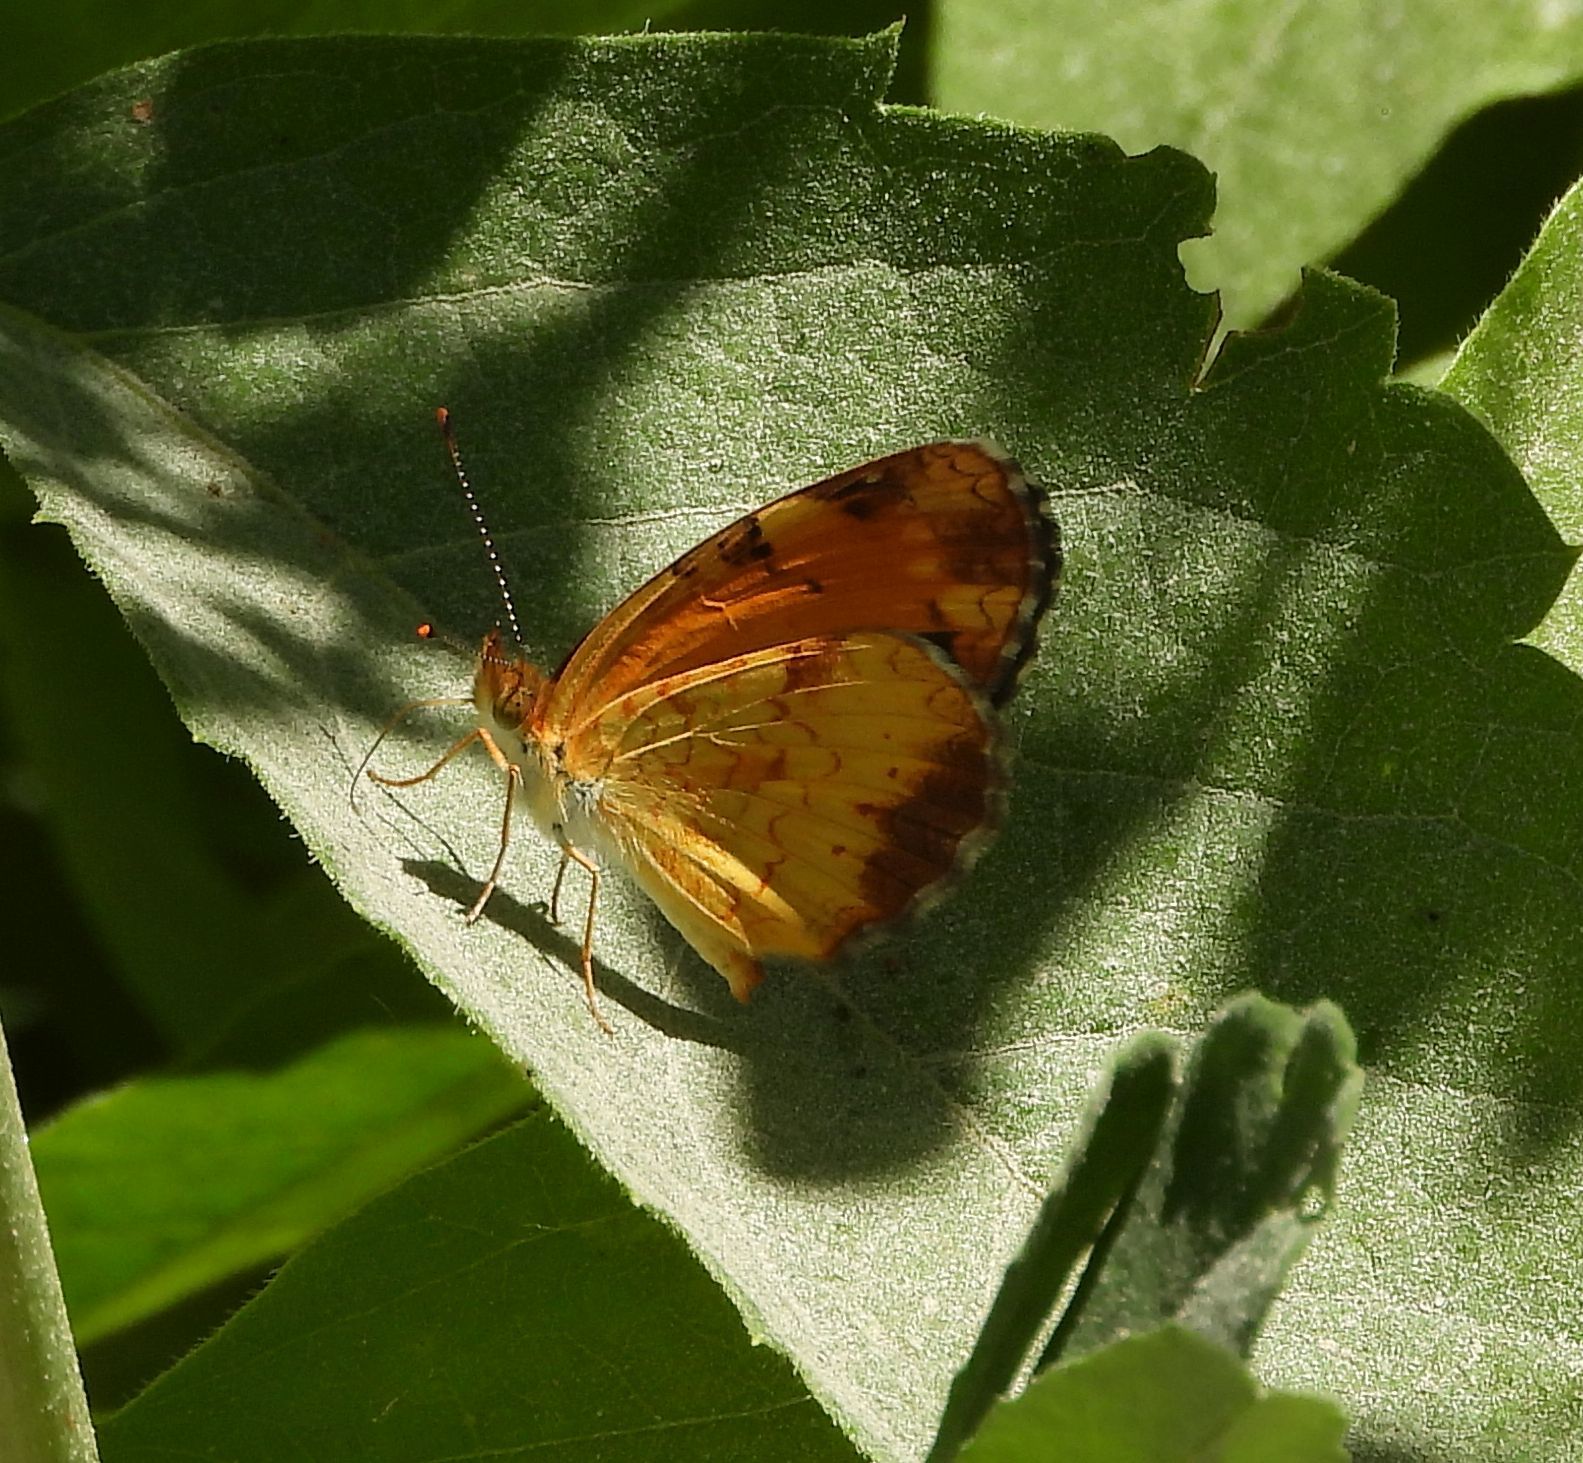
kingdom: Animalia
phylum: Arthropoda
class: Insecta
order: Lepidoptera
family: Nymphalidae
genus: Phyciodes
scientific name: Phyciodes tharos
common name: Pearl crescent
